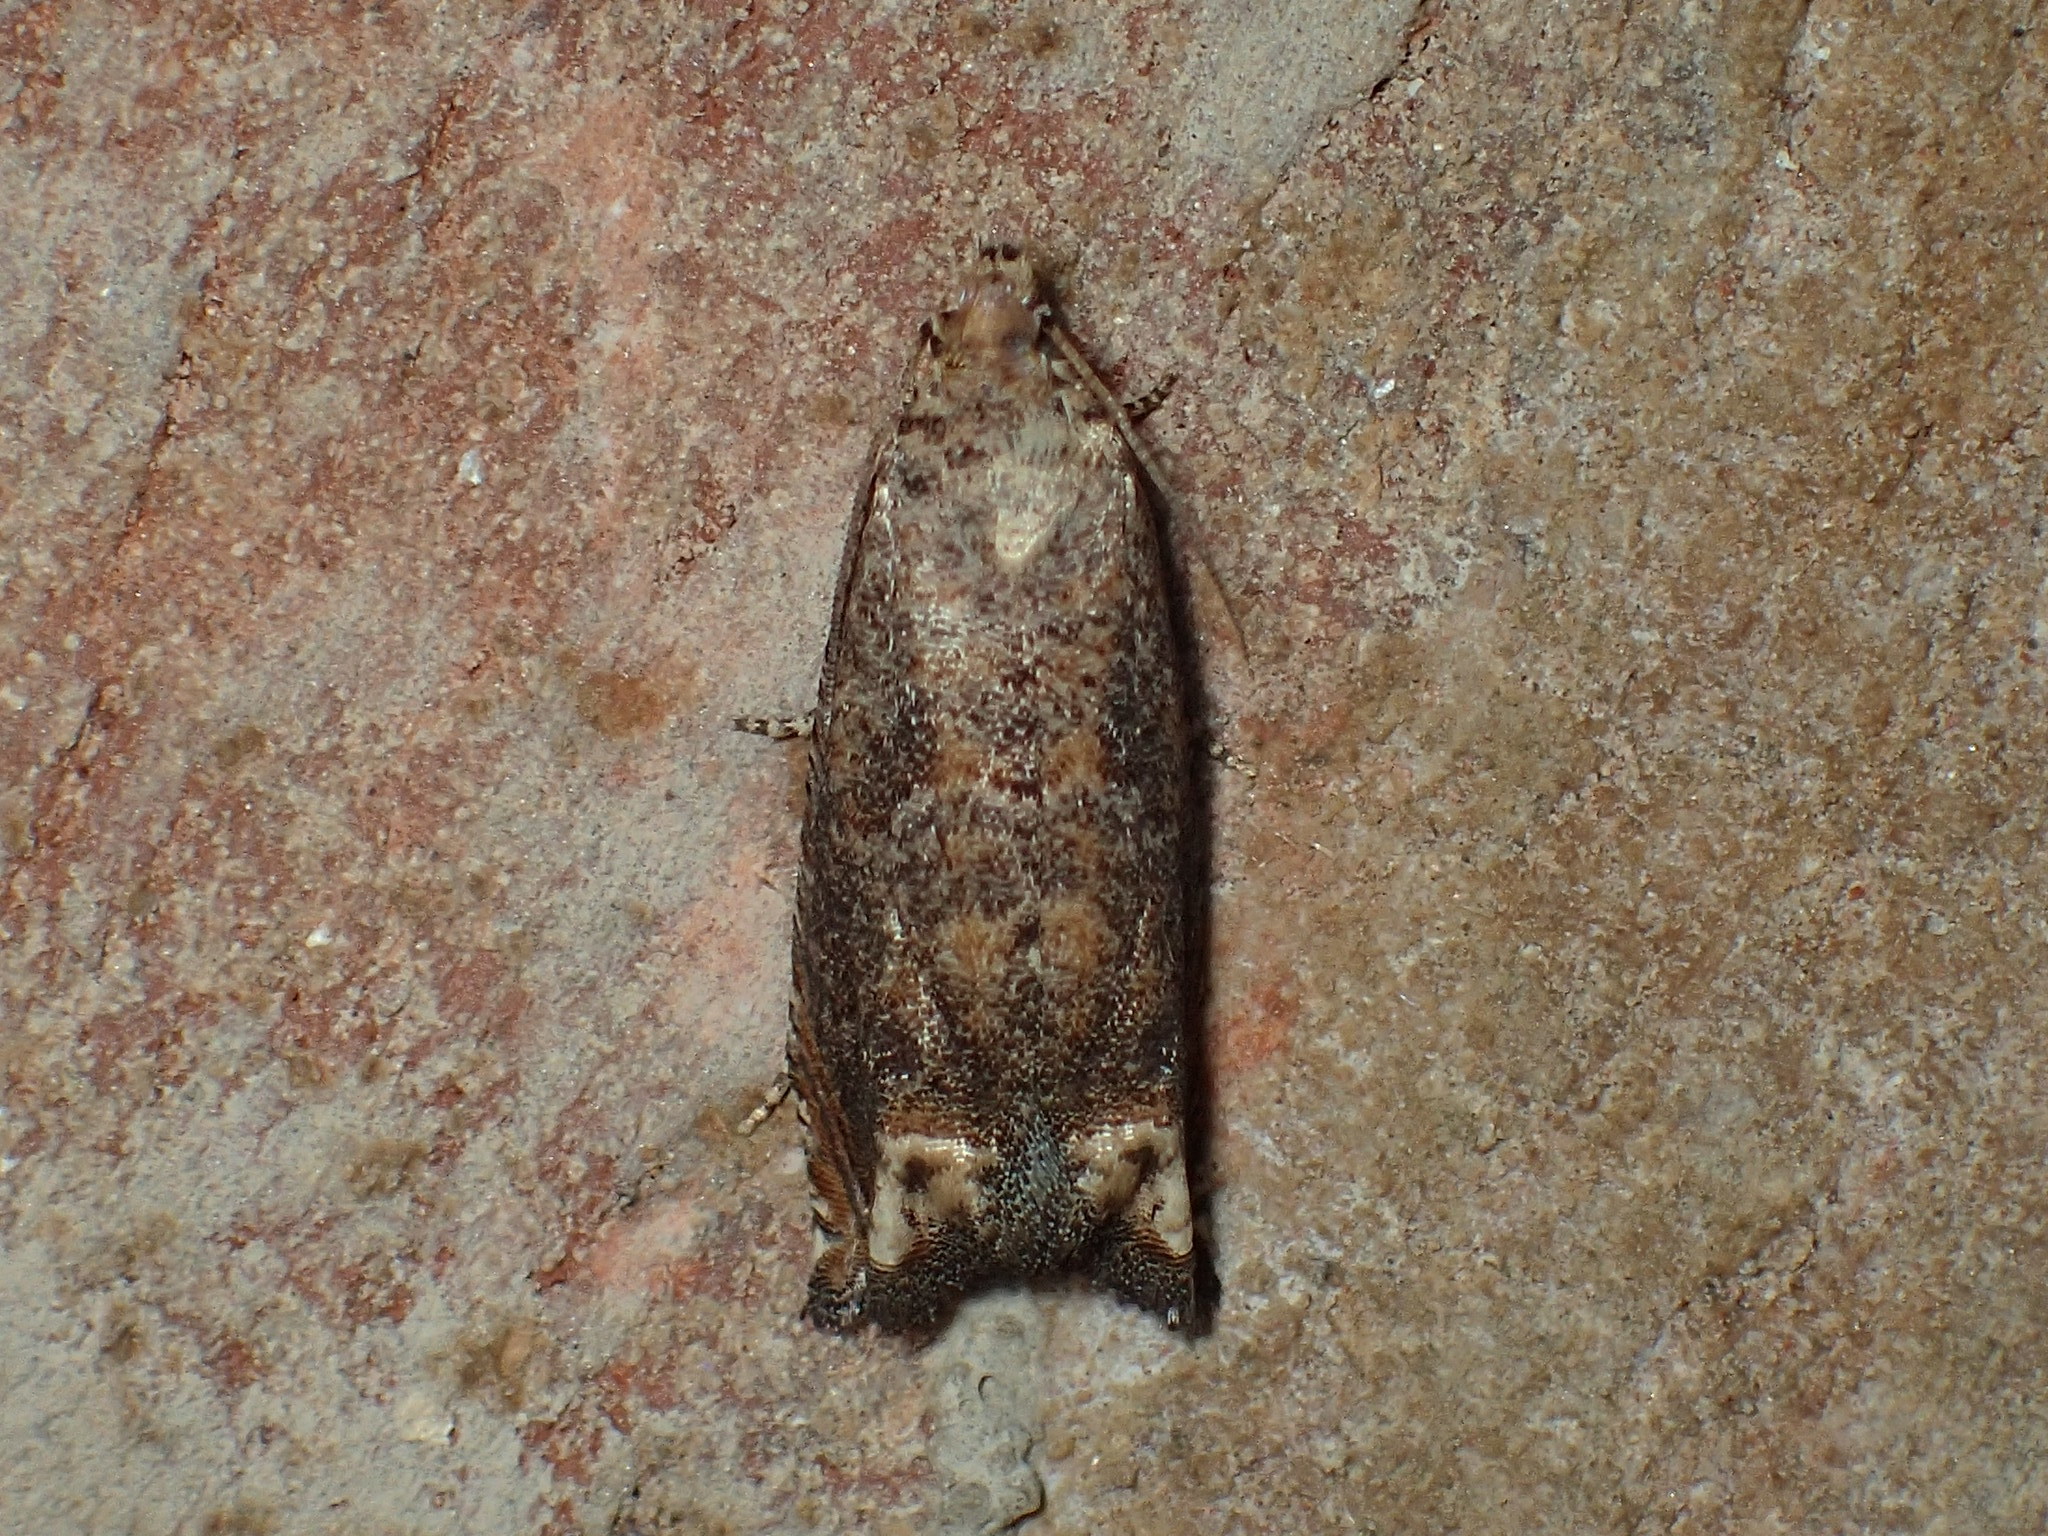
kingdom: Animalia
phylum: Arthropoda
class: Insecta
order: Lepidoptera
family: Tortricidae
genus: Epiblema
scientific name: Epiblema abruptana
